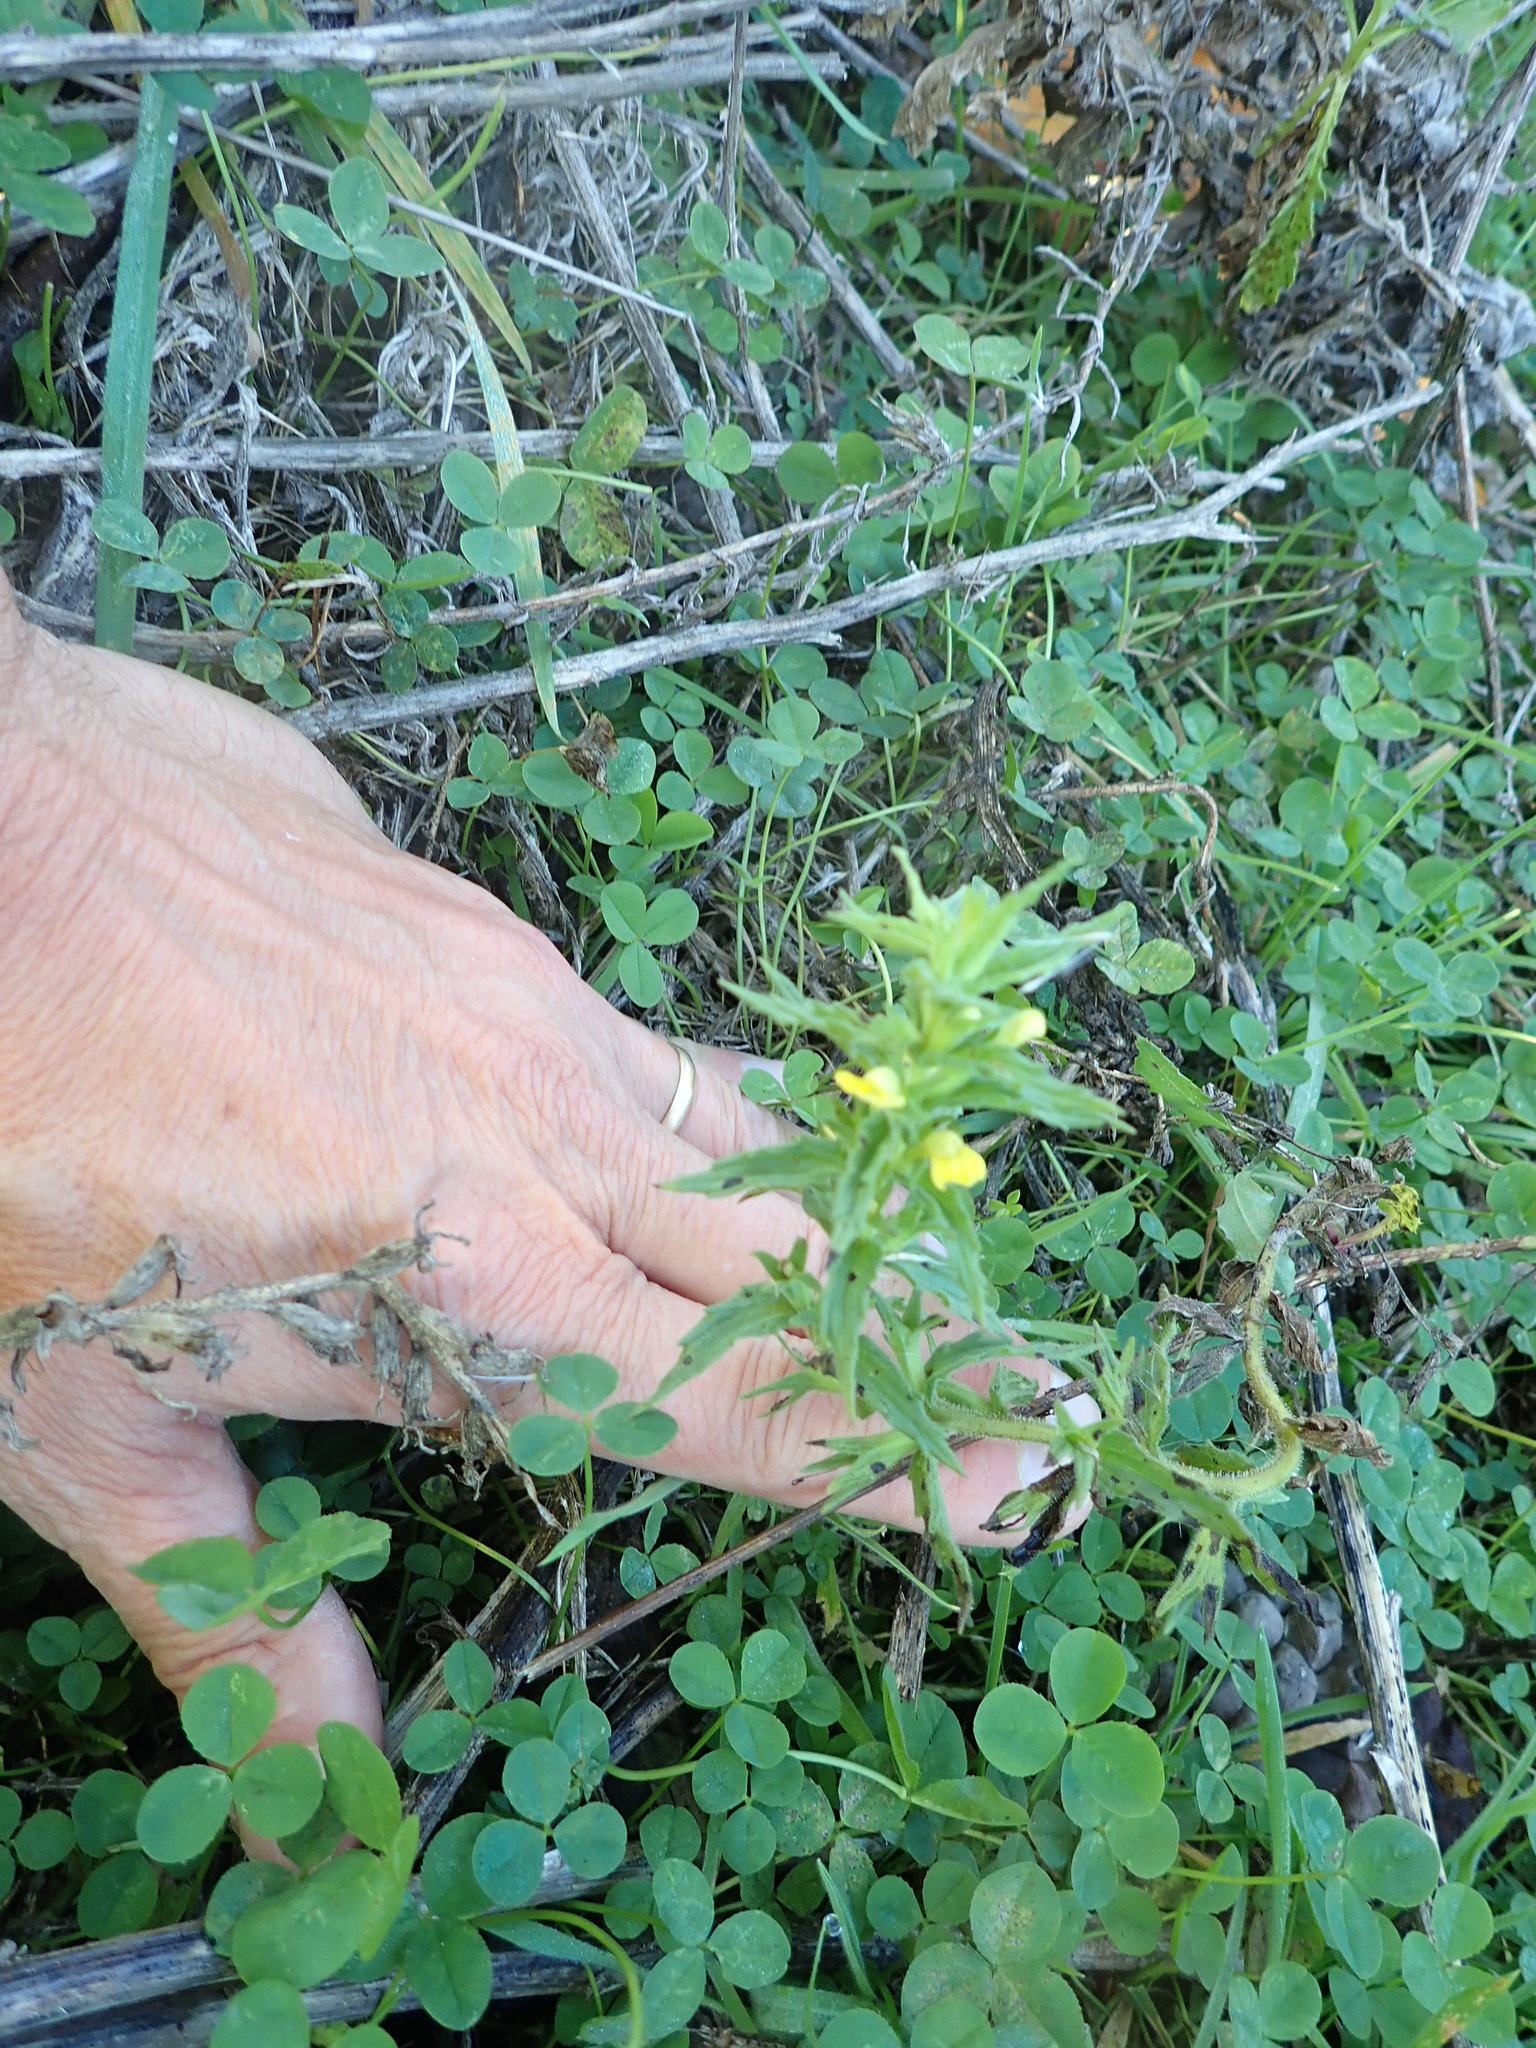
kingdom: Plantae
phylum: Tracheophyta
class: Magnoliopsida
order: Lamiales
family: Orobanchaceae
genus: Bellardia
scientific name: Bellardia viscosa
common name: Sticky parentucellia
